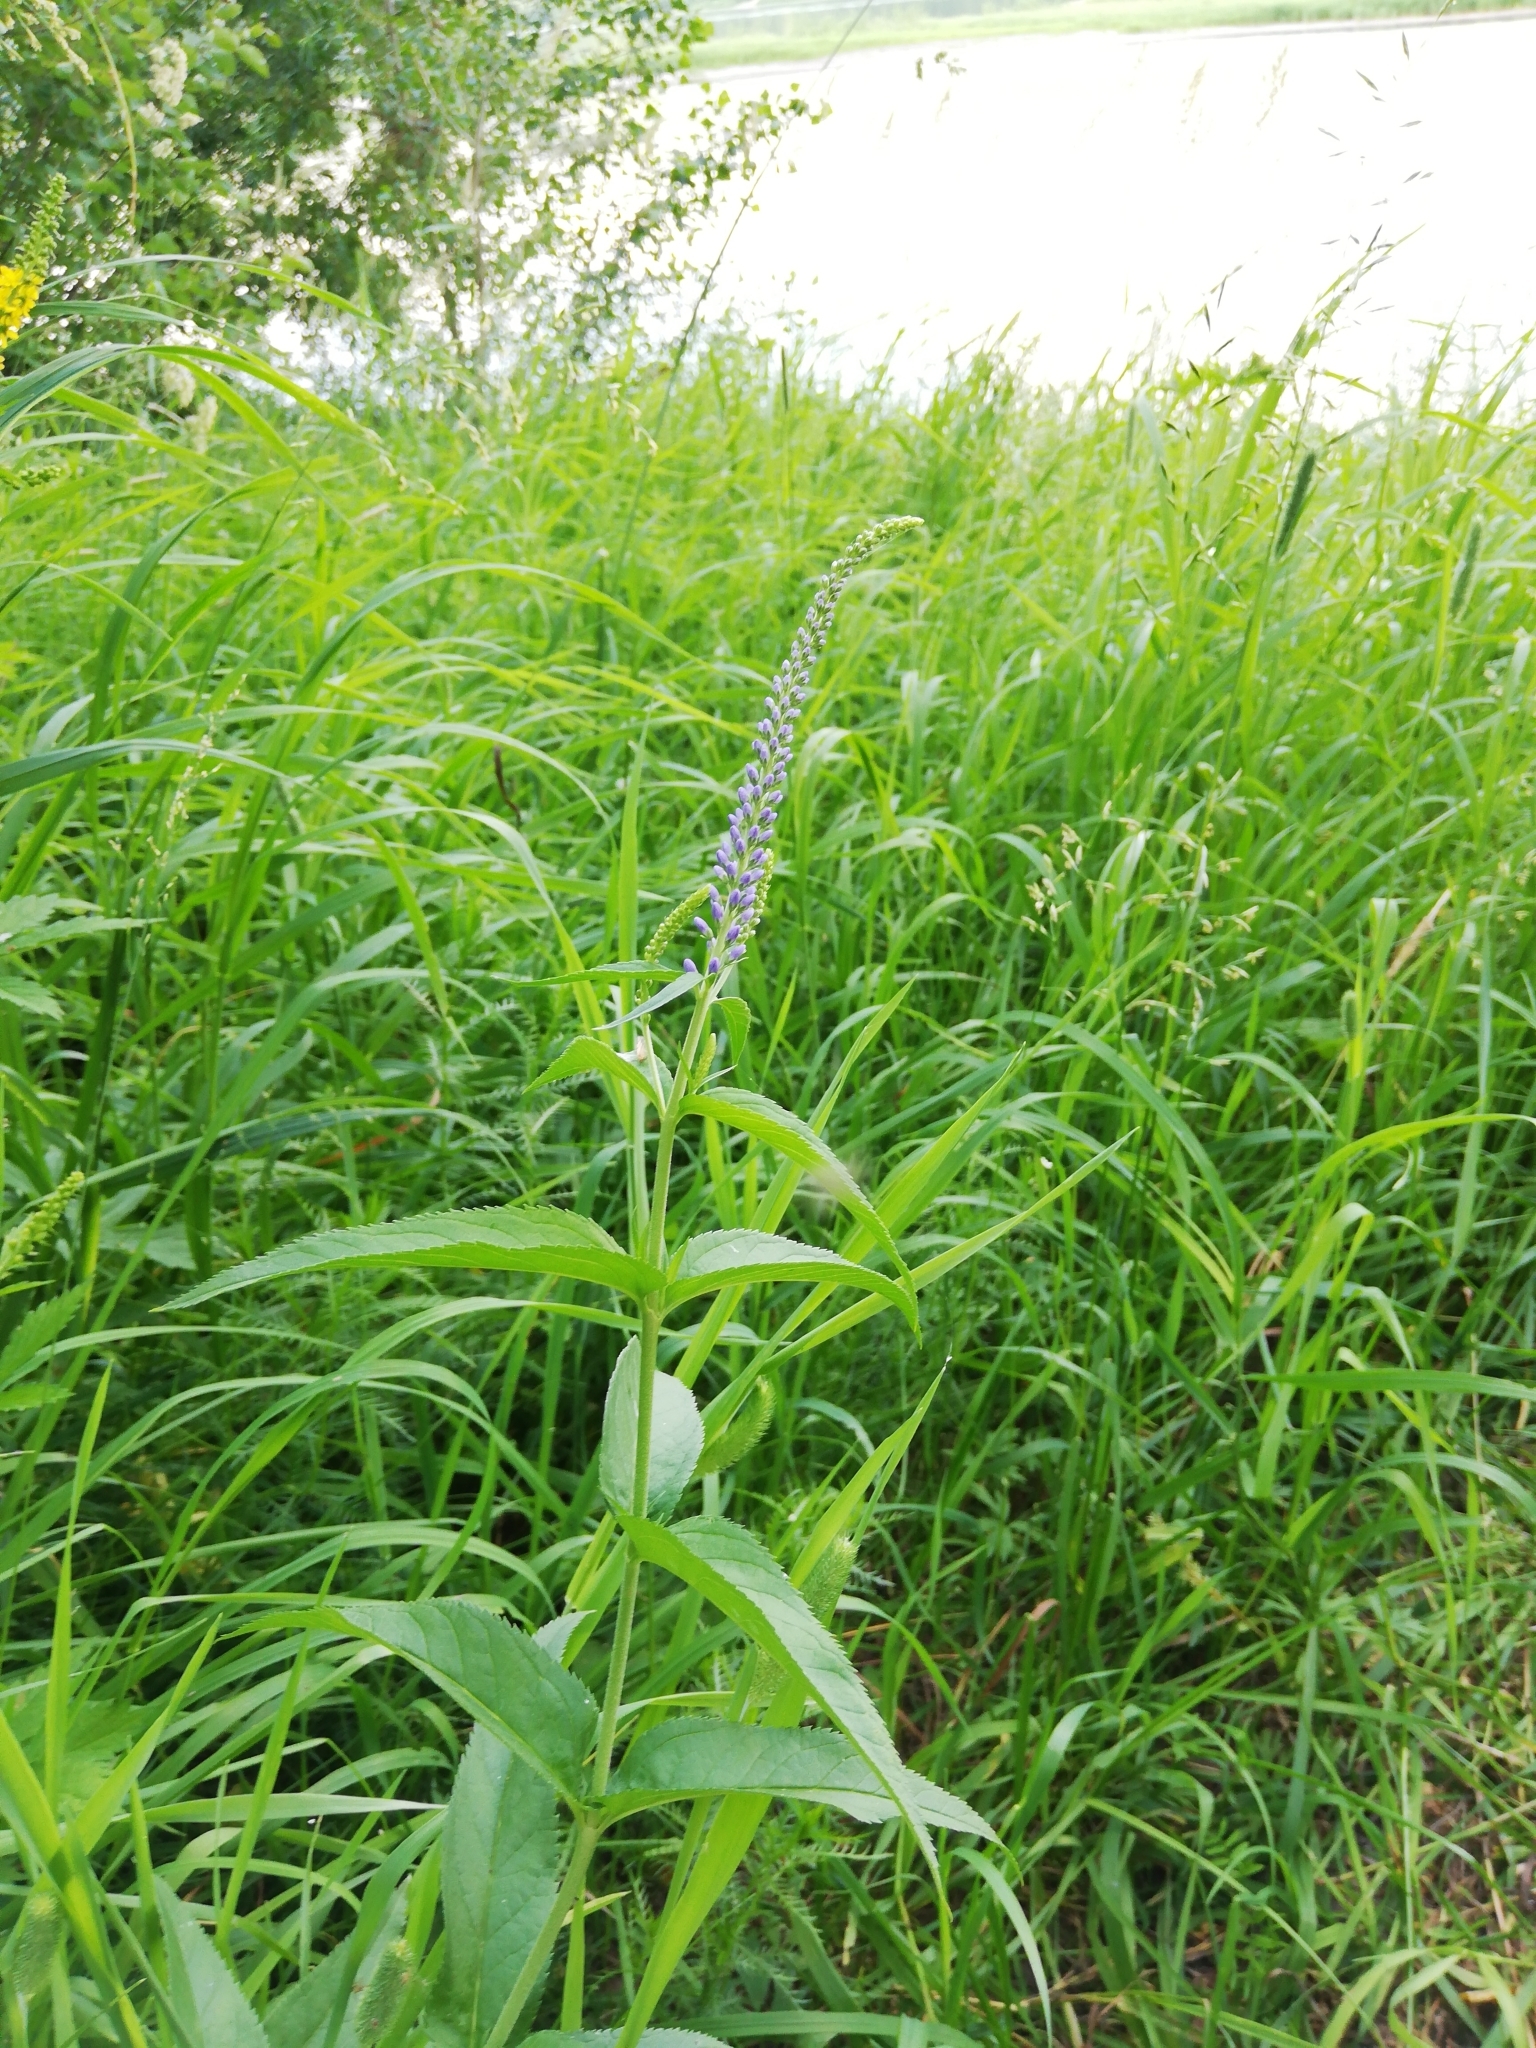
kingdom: Plantae
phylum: Tracheophyta
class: Magnoliopsida
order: Lamiales
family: Plantaginaceae
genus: Veronica
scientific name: Veronica longifolia
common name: Garden speedwell
